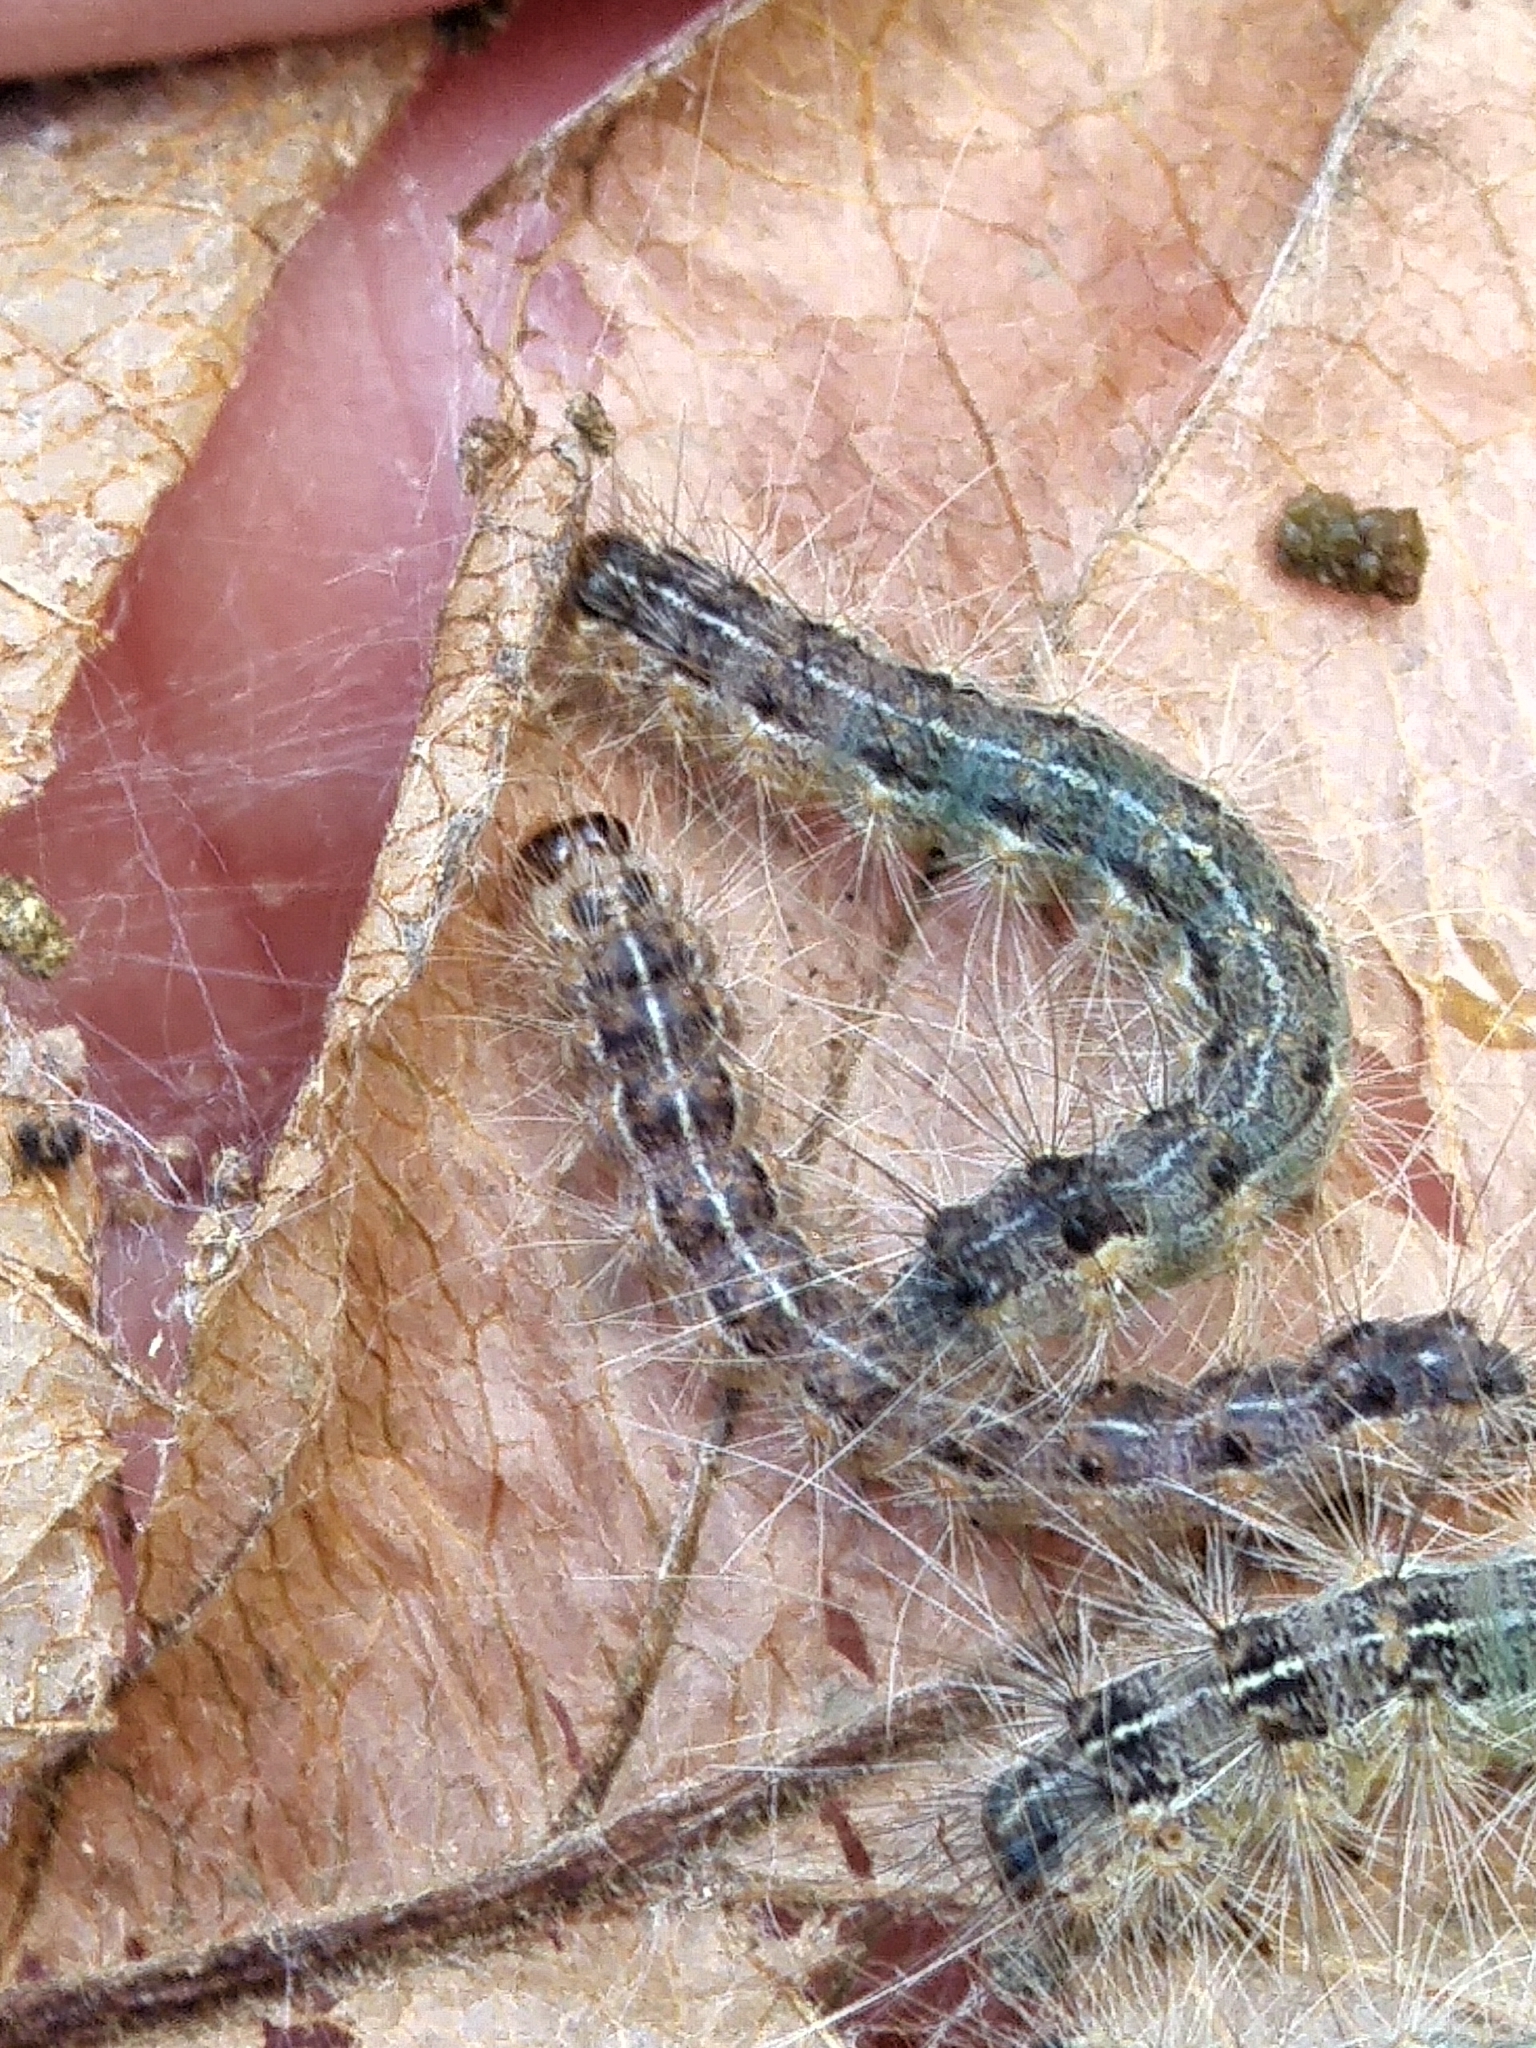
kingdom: Animalia
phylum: Arthropoda
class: Insecta
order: Lepidoptera
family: Erebidae
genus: Hyphantria
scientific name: Hyphantria cunea
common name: American white moth
